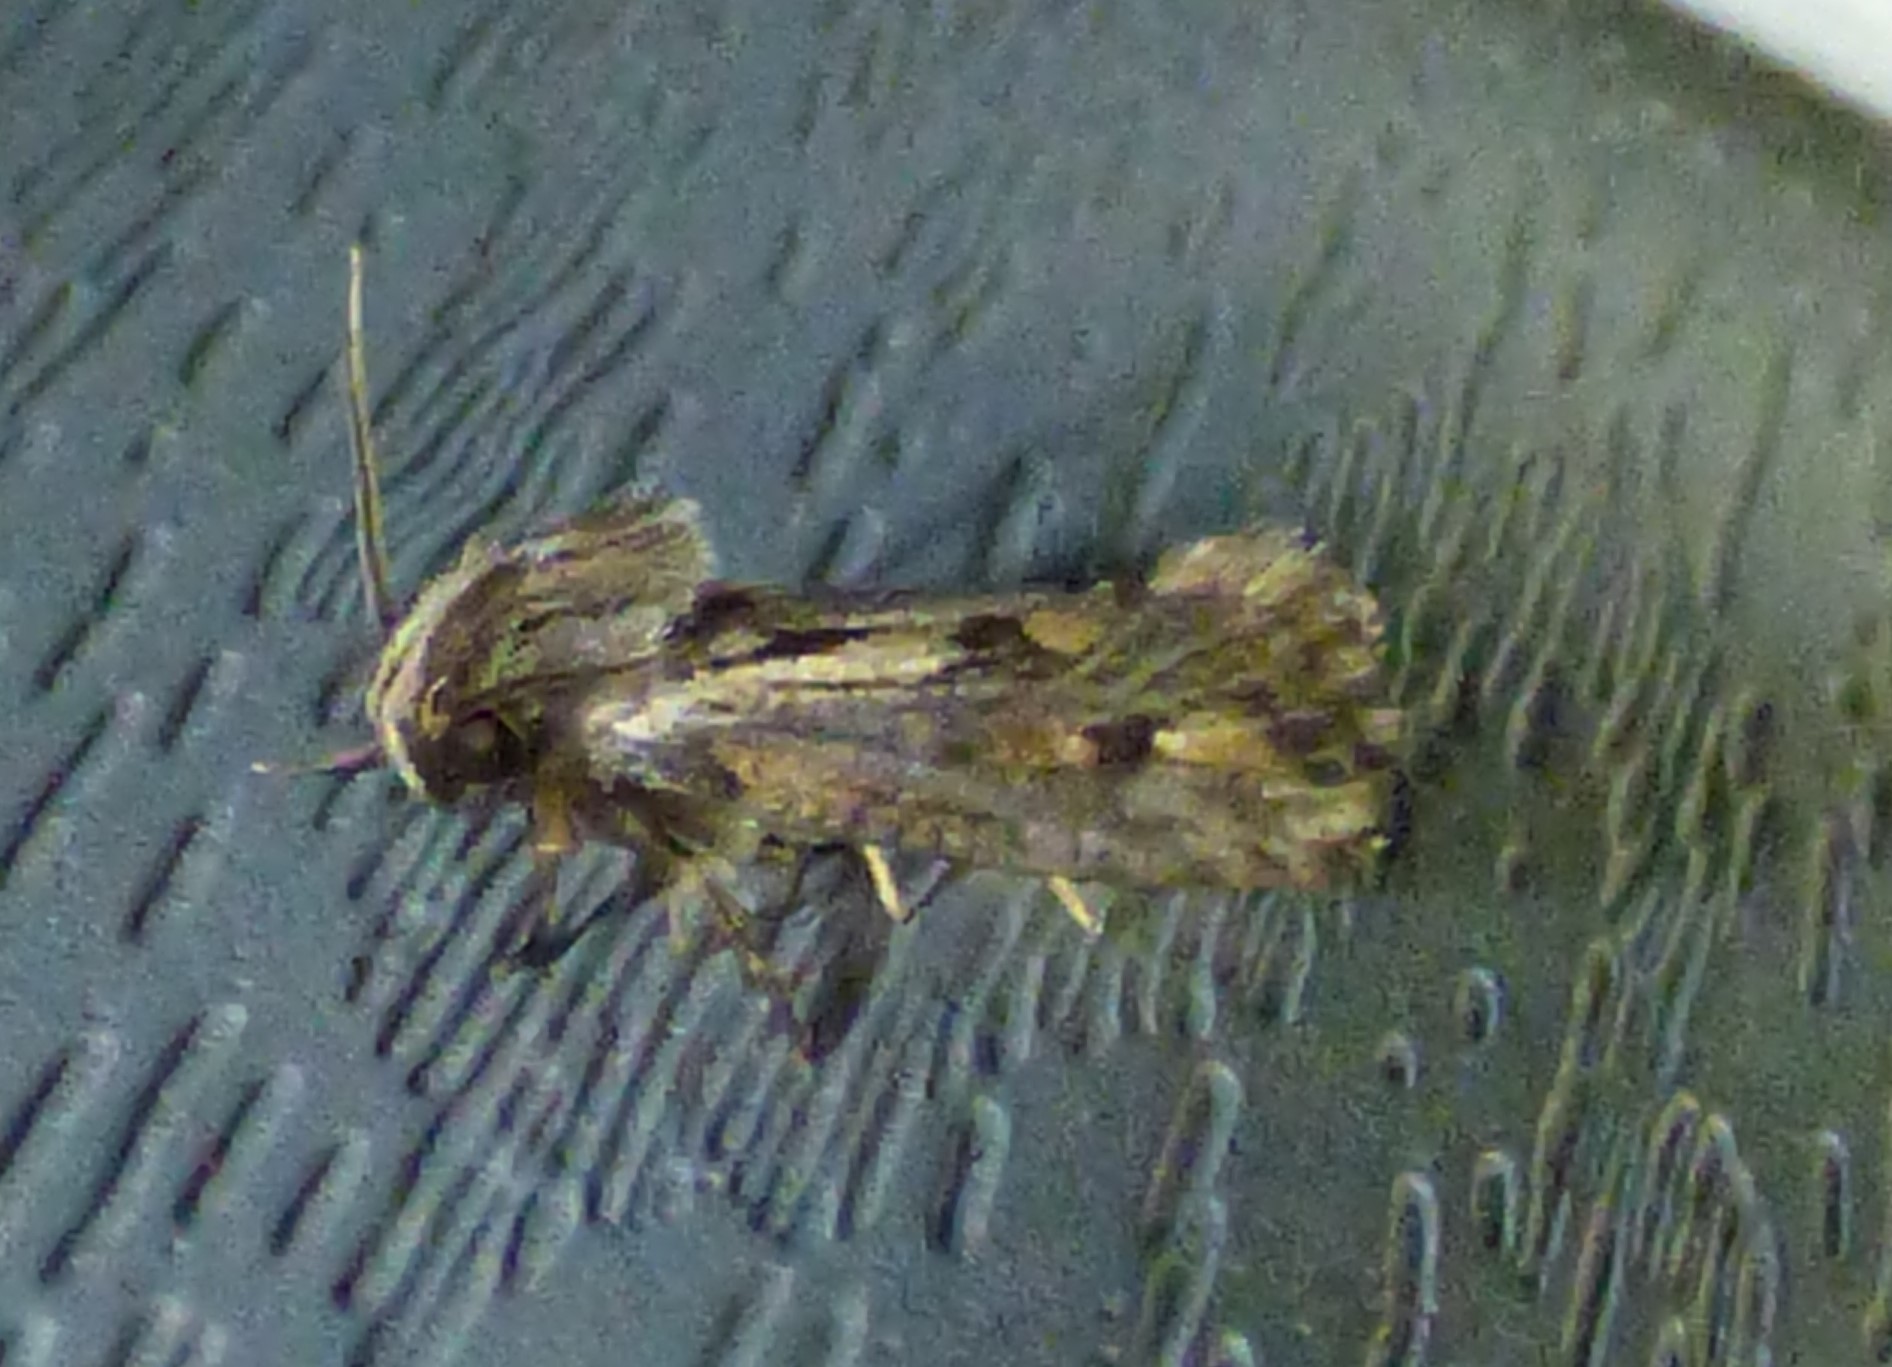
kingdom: Animalia
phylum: Arthropoda
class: Insecta
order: Lepidoptera
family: Tineidae
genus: Acrolophus
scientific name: Acrolophus popeanella
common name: Clemens' grass tubeworm moth
